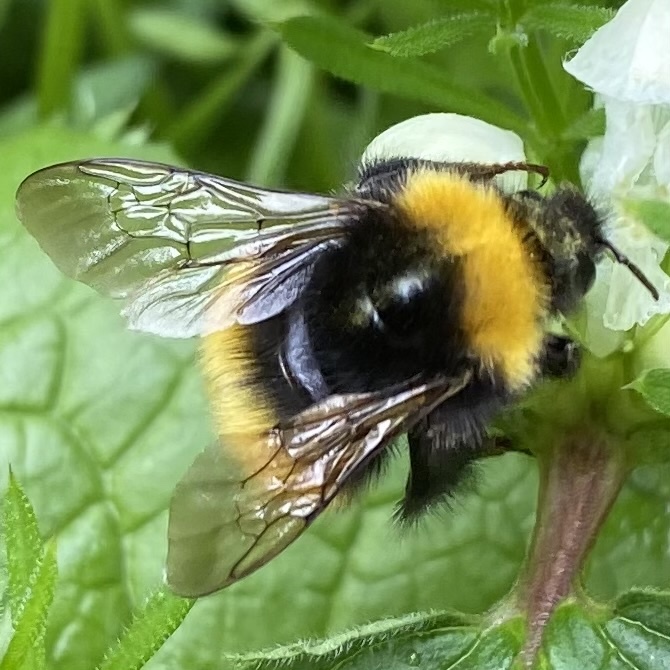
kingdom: Animalia
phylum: Arthropoda
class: Insecta
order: Hymenoptera
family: Apidae
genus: Bombus
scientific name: Bombus haematurus
